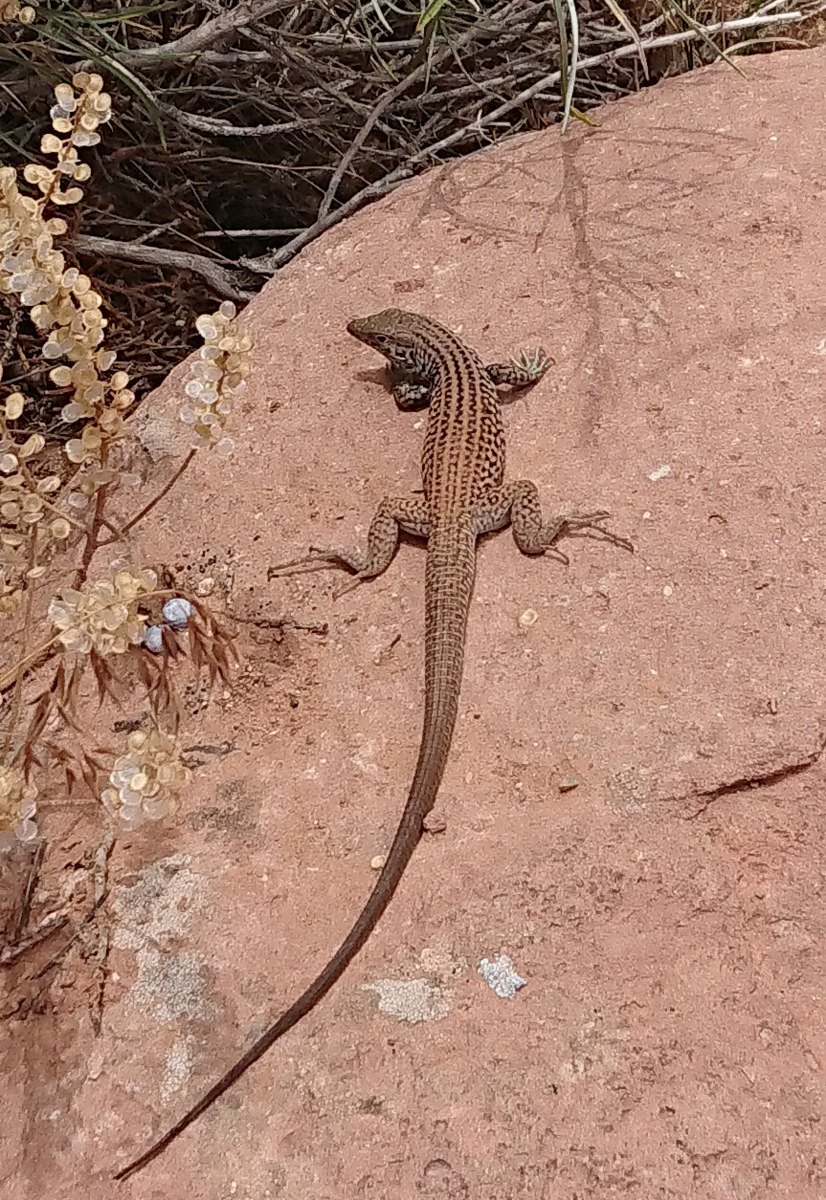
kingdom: Animalia
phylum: Chordata
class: Squamata
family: Teiidae
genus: Aspidoscelis
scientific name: Aspidoscelis tigris
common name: Tiger whiptail
